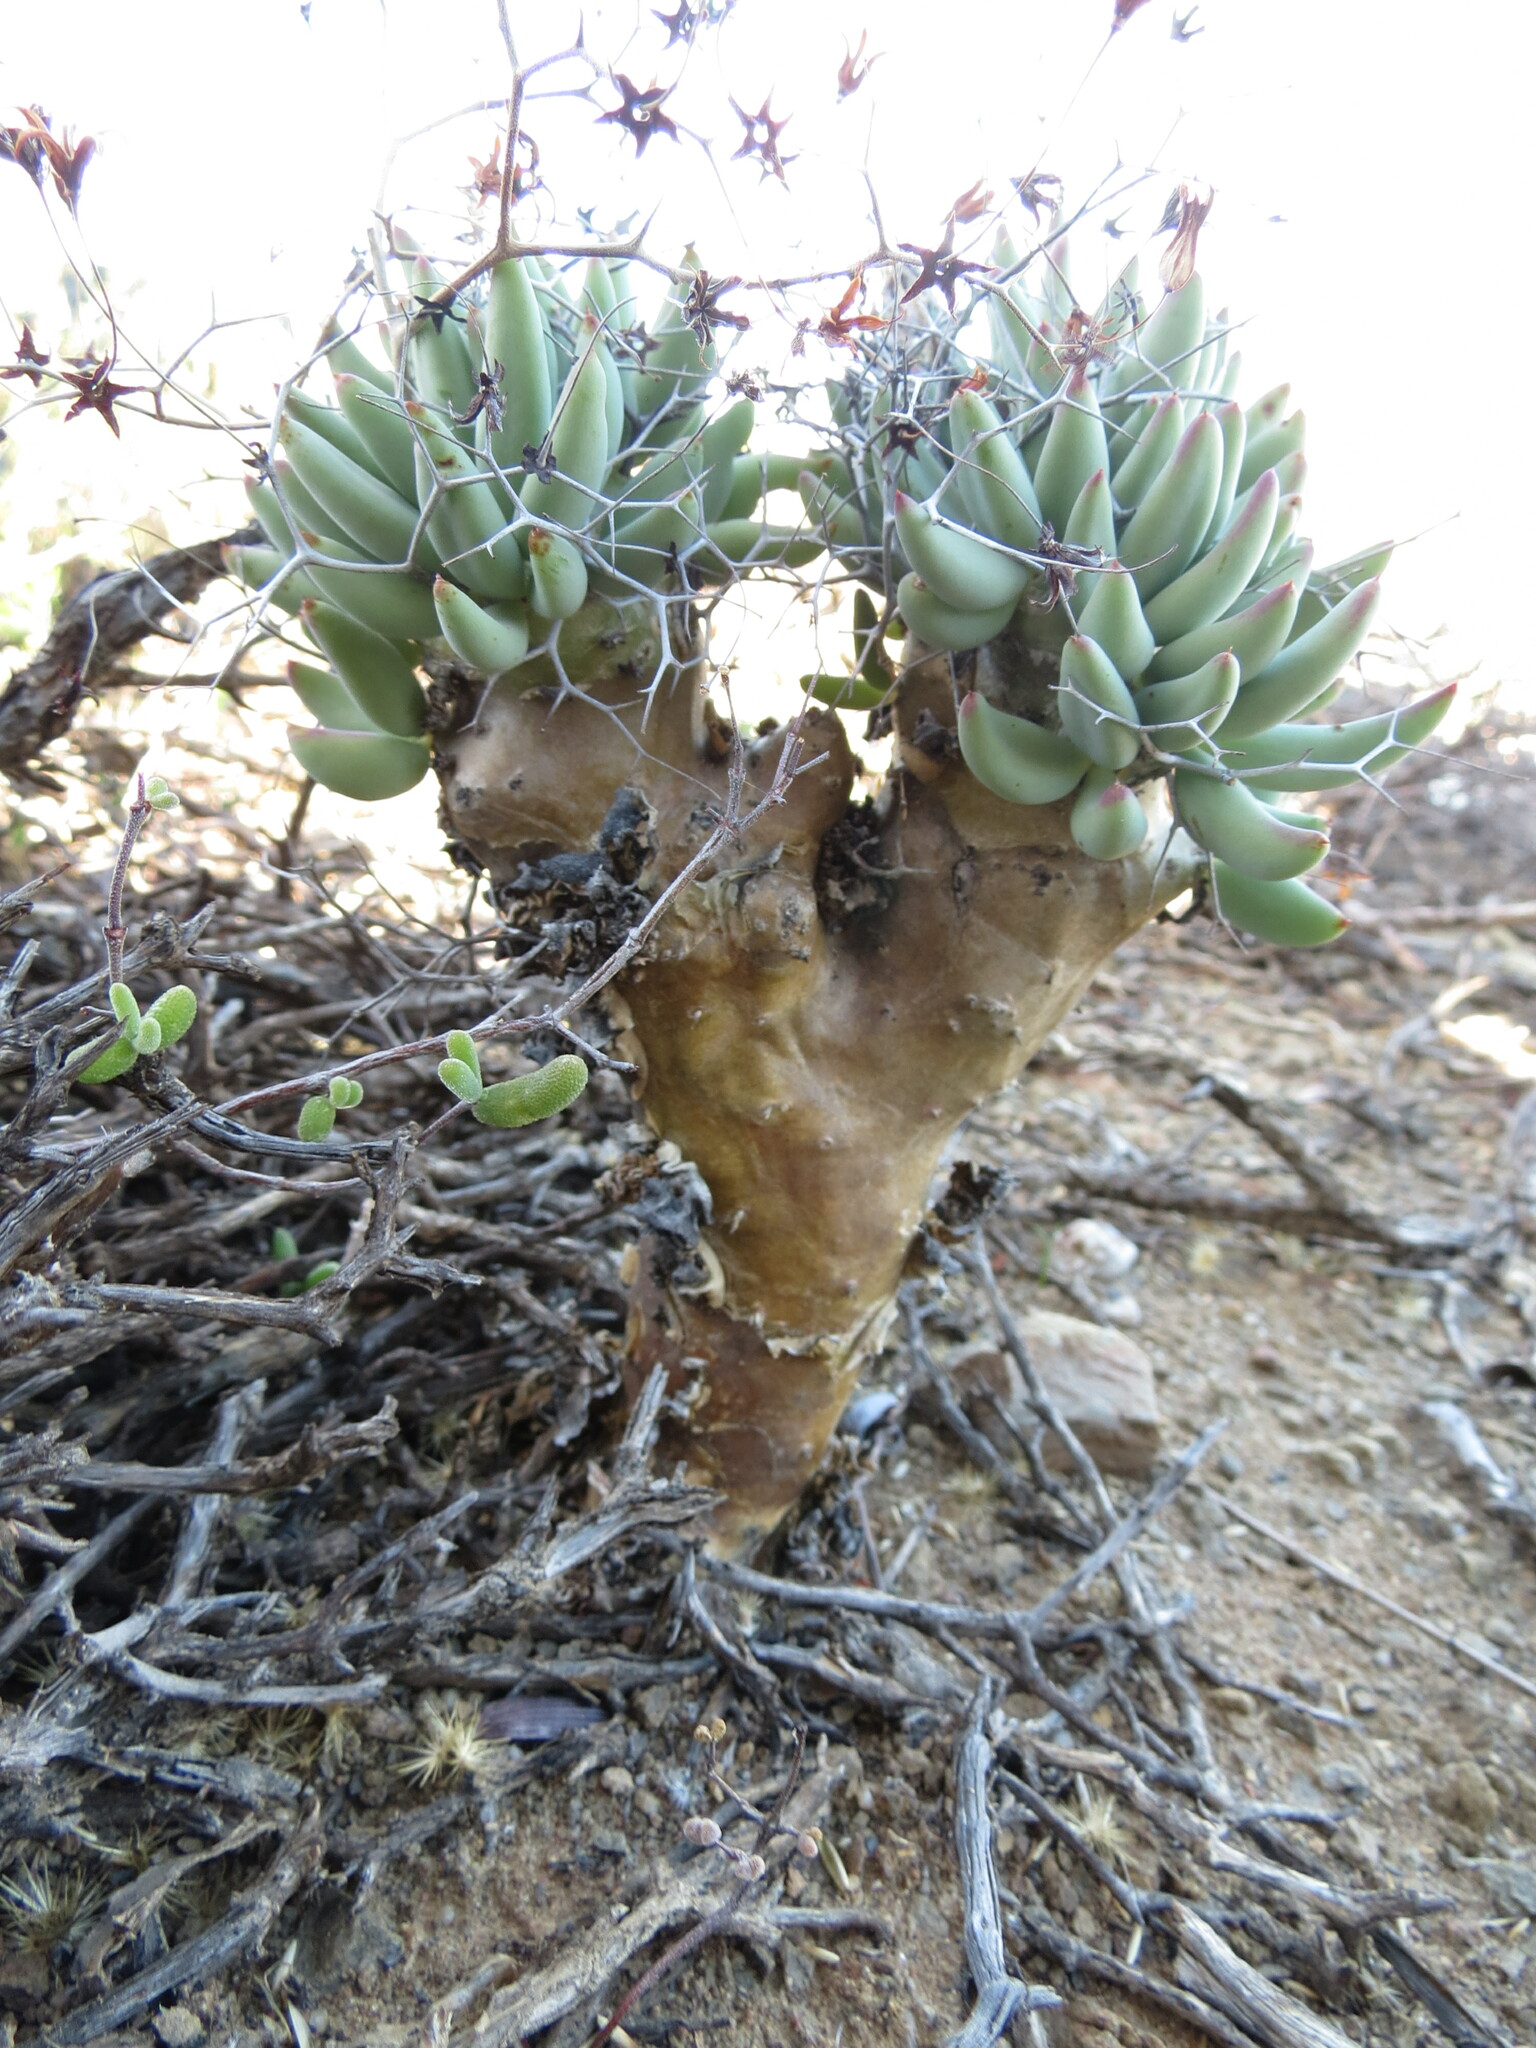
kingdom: Plantae
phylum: Tracheophyta
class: Magnoliopsida
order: Saxifragales
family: Crassulaceae
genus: Tylecodon
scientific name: Tylecodon reticulatus
